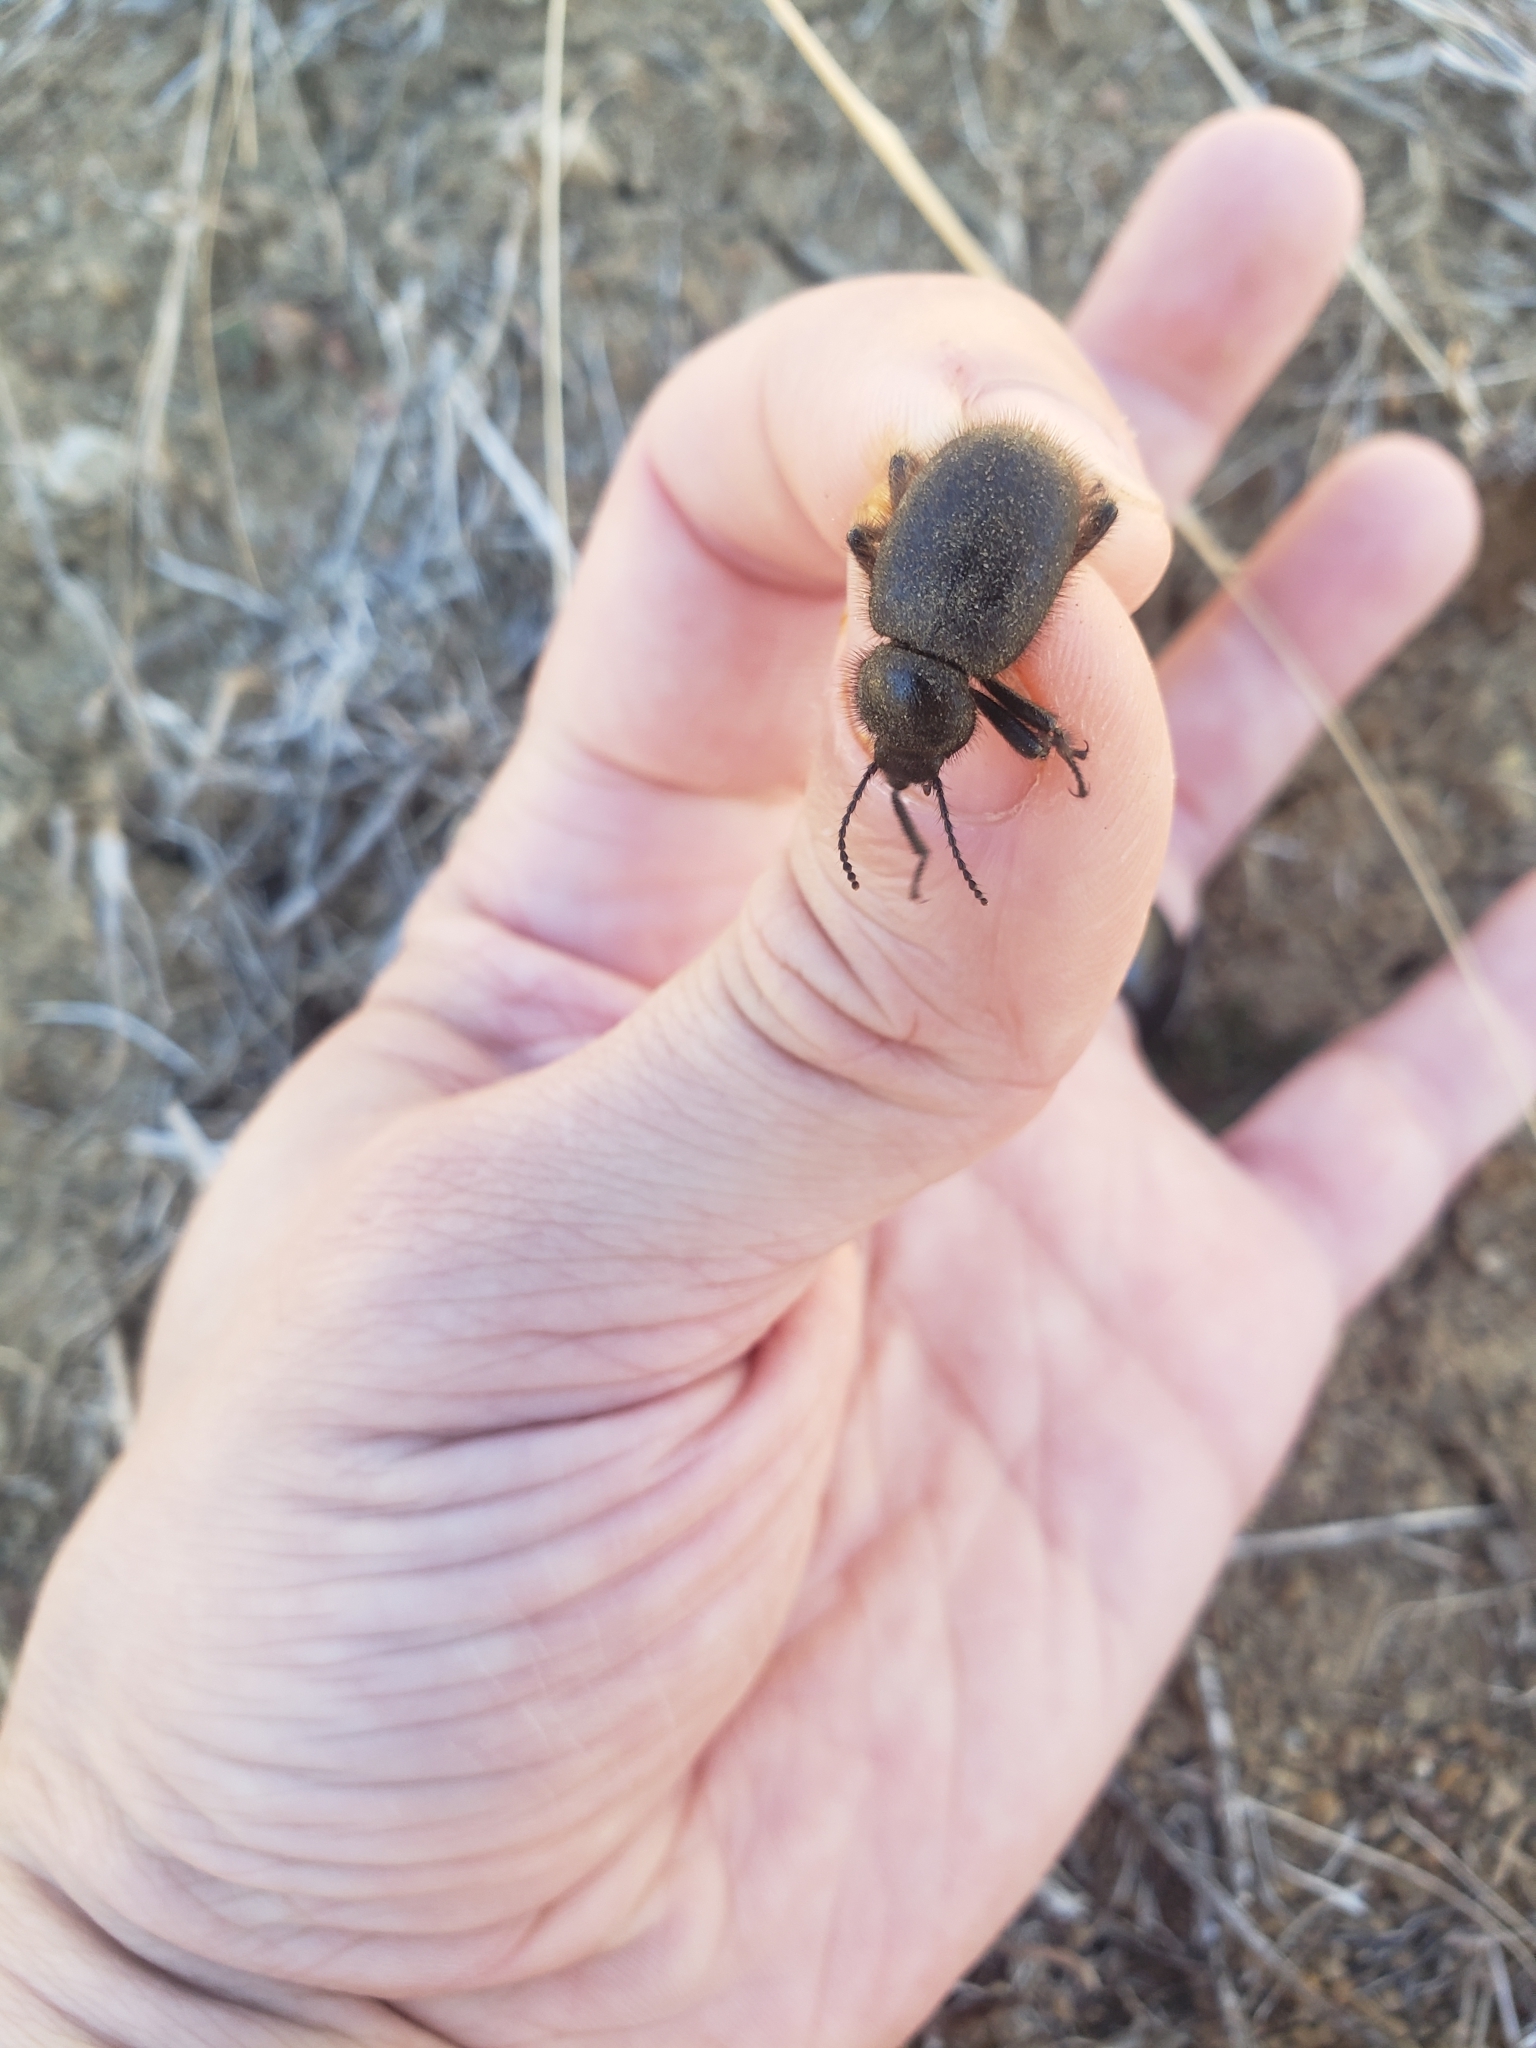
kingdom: Animalia
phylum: Arthropoda
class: Insecta
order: Coleoptera
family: Tenebrionidae
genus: Eleodes
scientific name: Eleodes osculans
